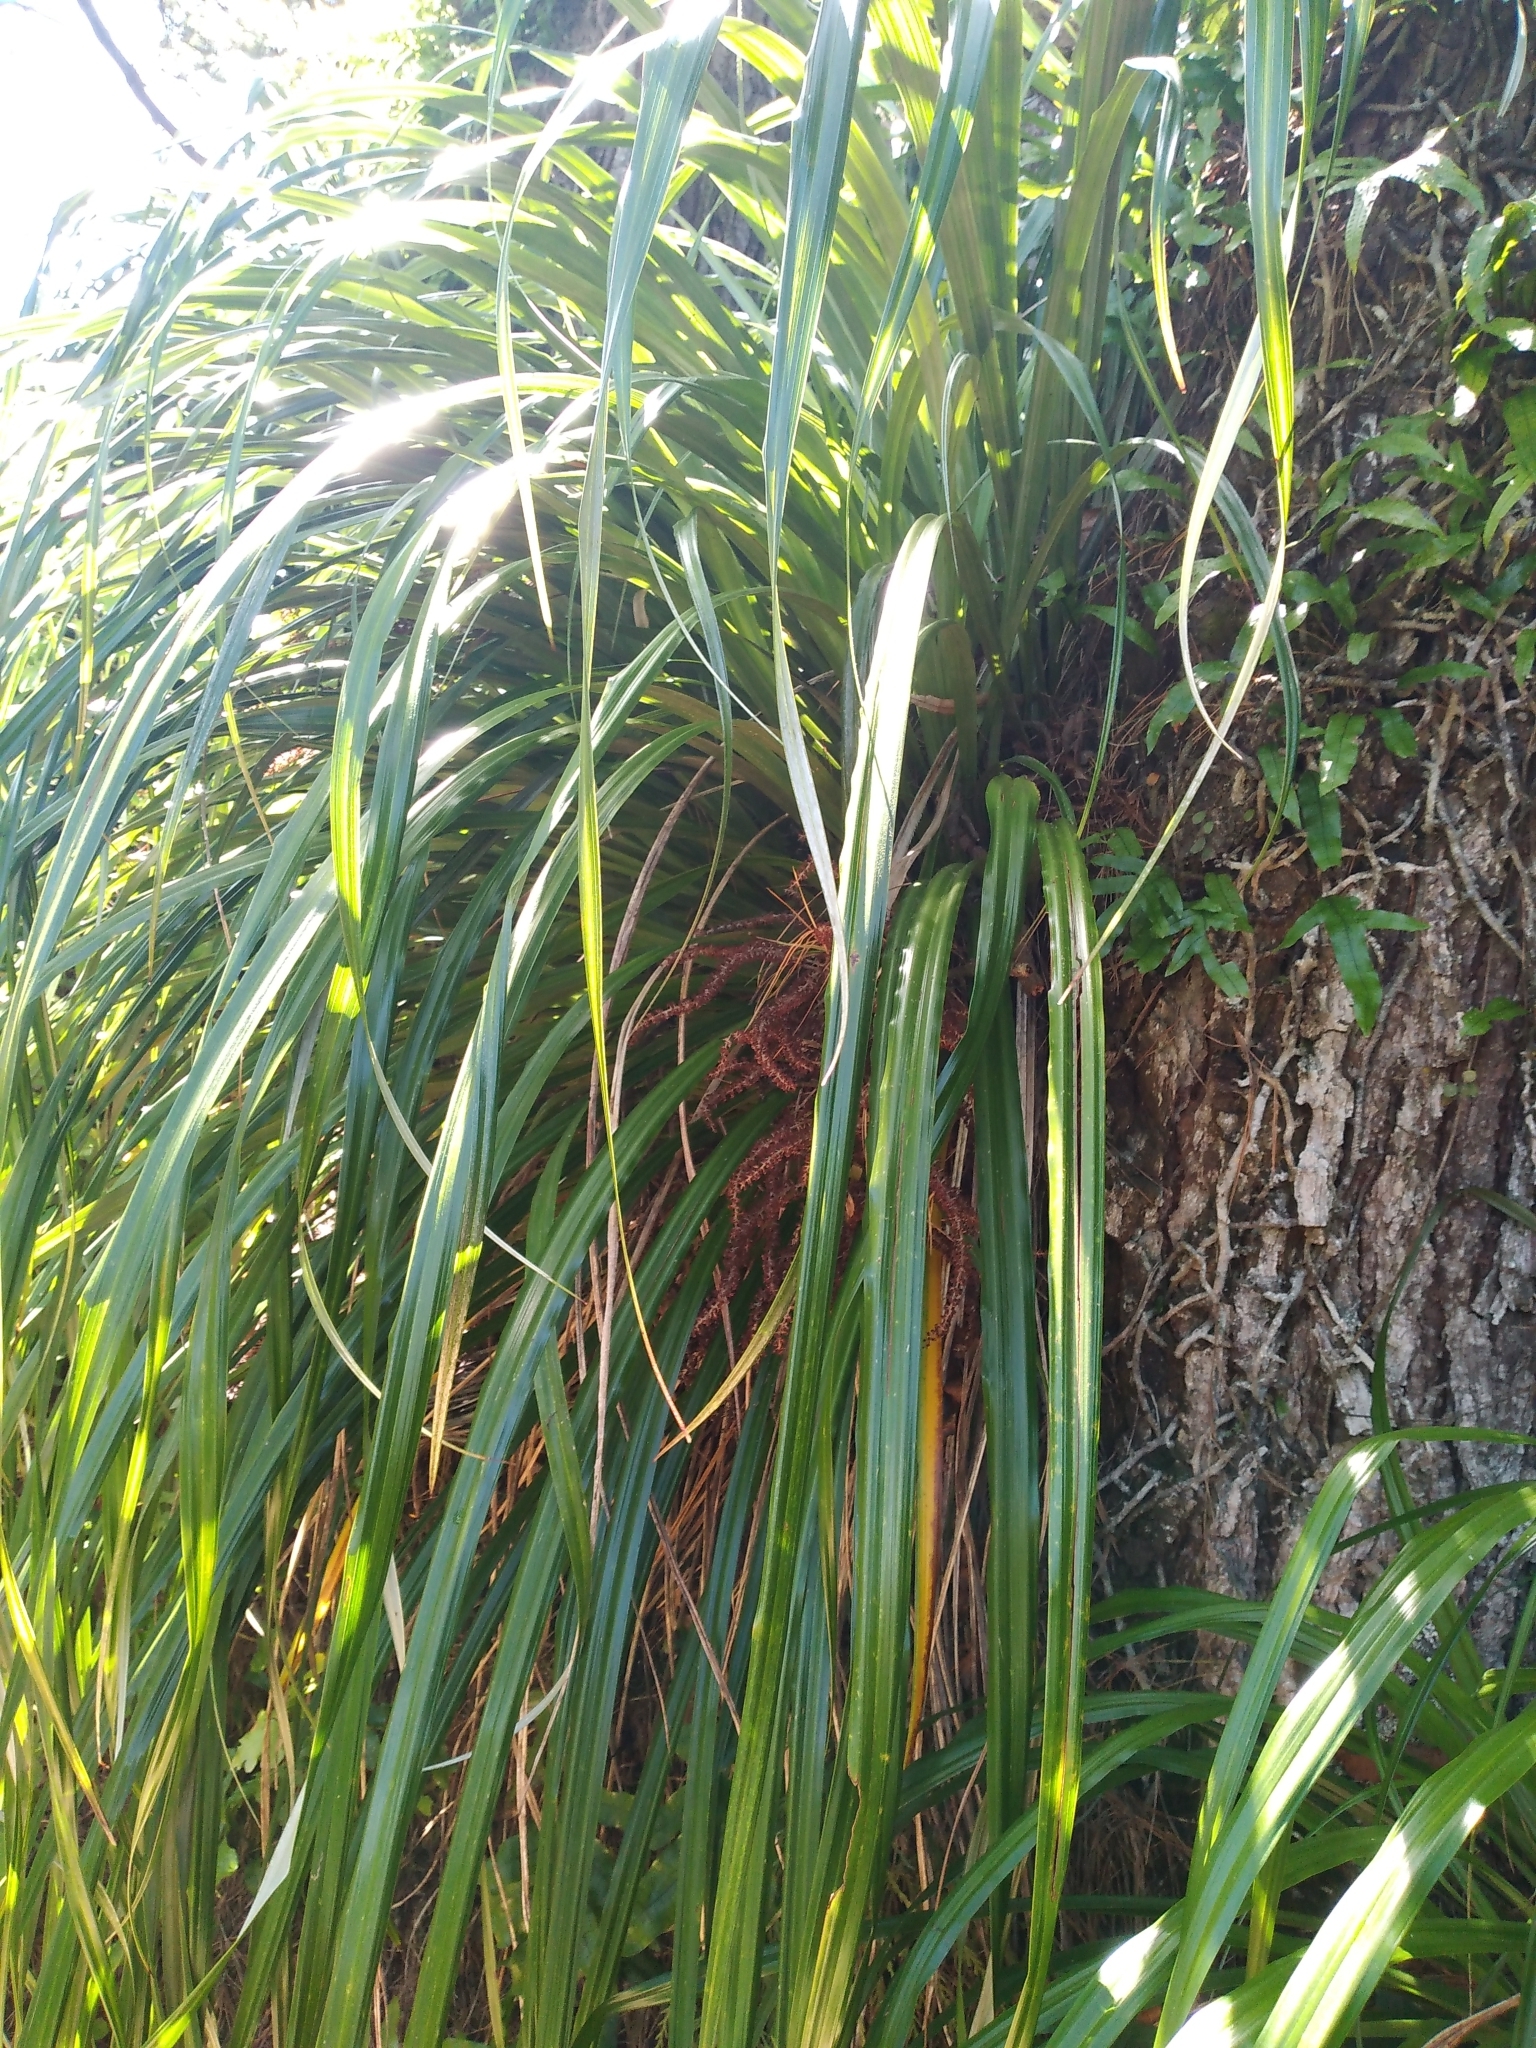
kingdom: Plantae
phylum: Tracheophyta
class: Liliopsida
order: Asparagales
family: Asteliaceae
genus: Astelia
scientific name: Astelia solandri
